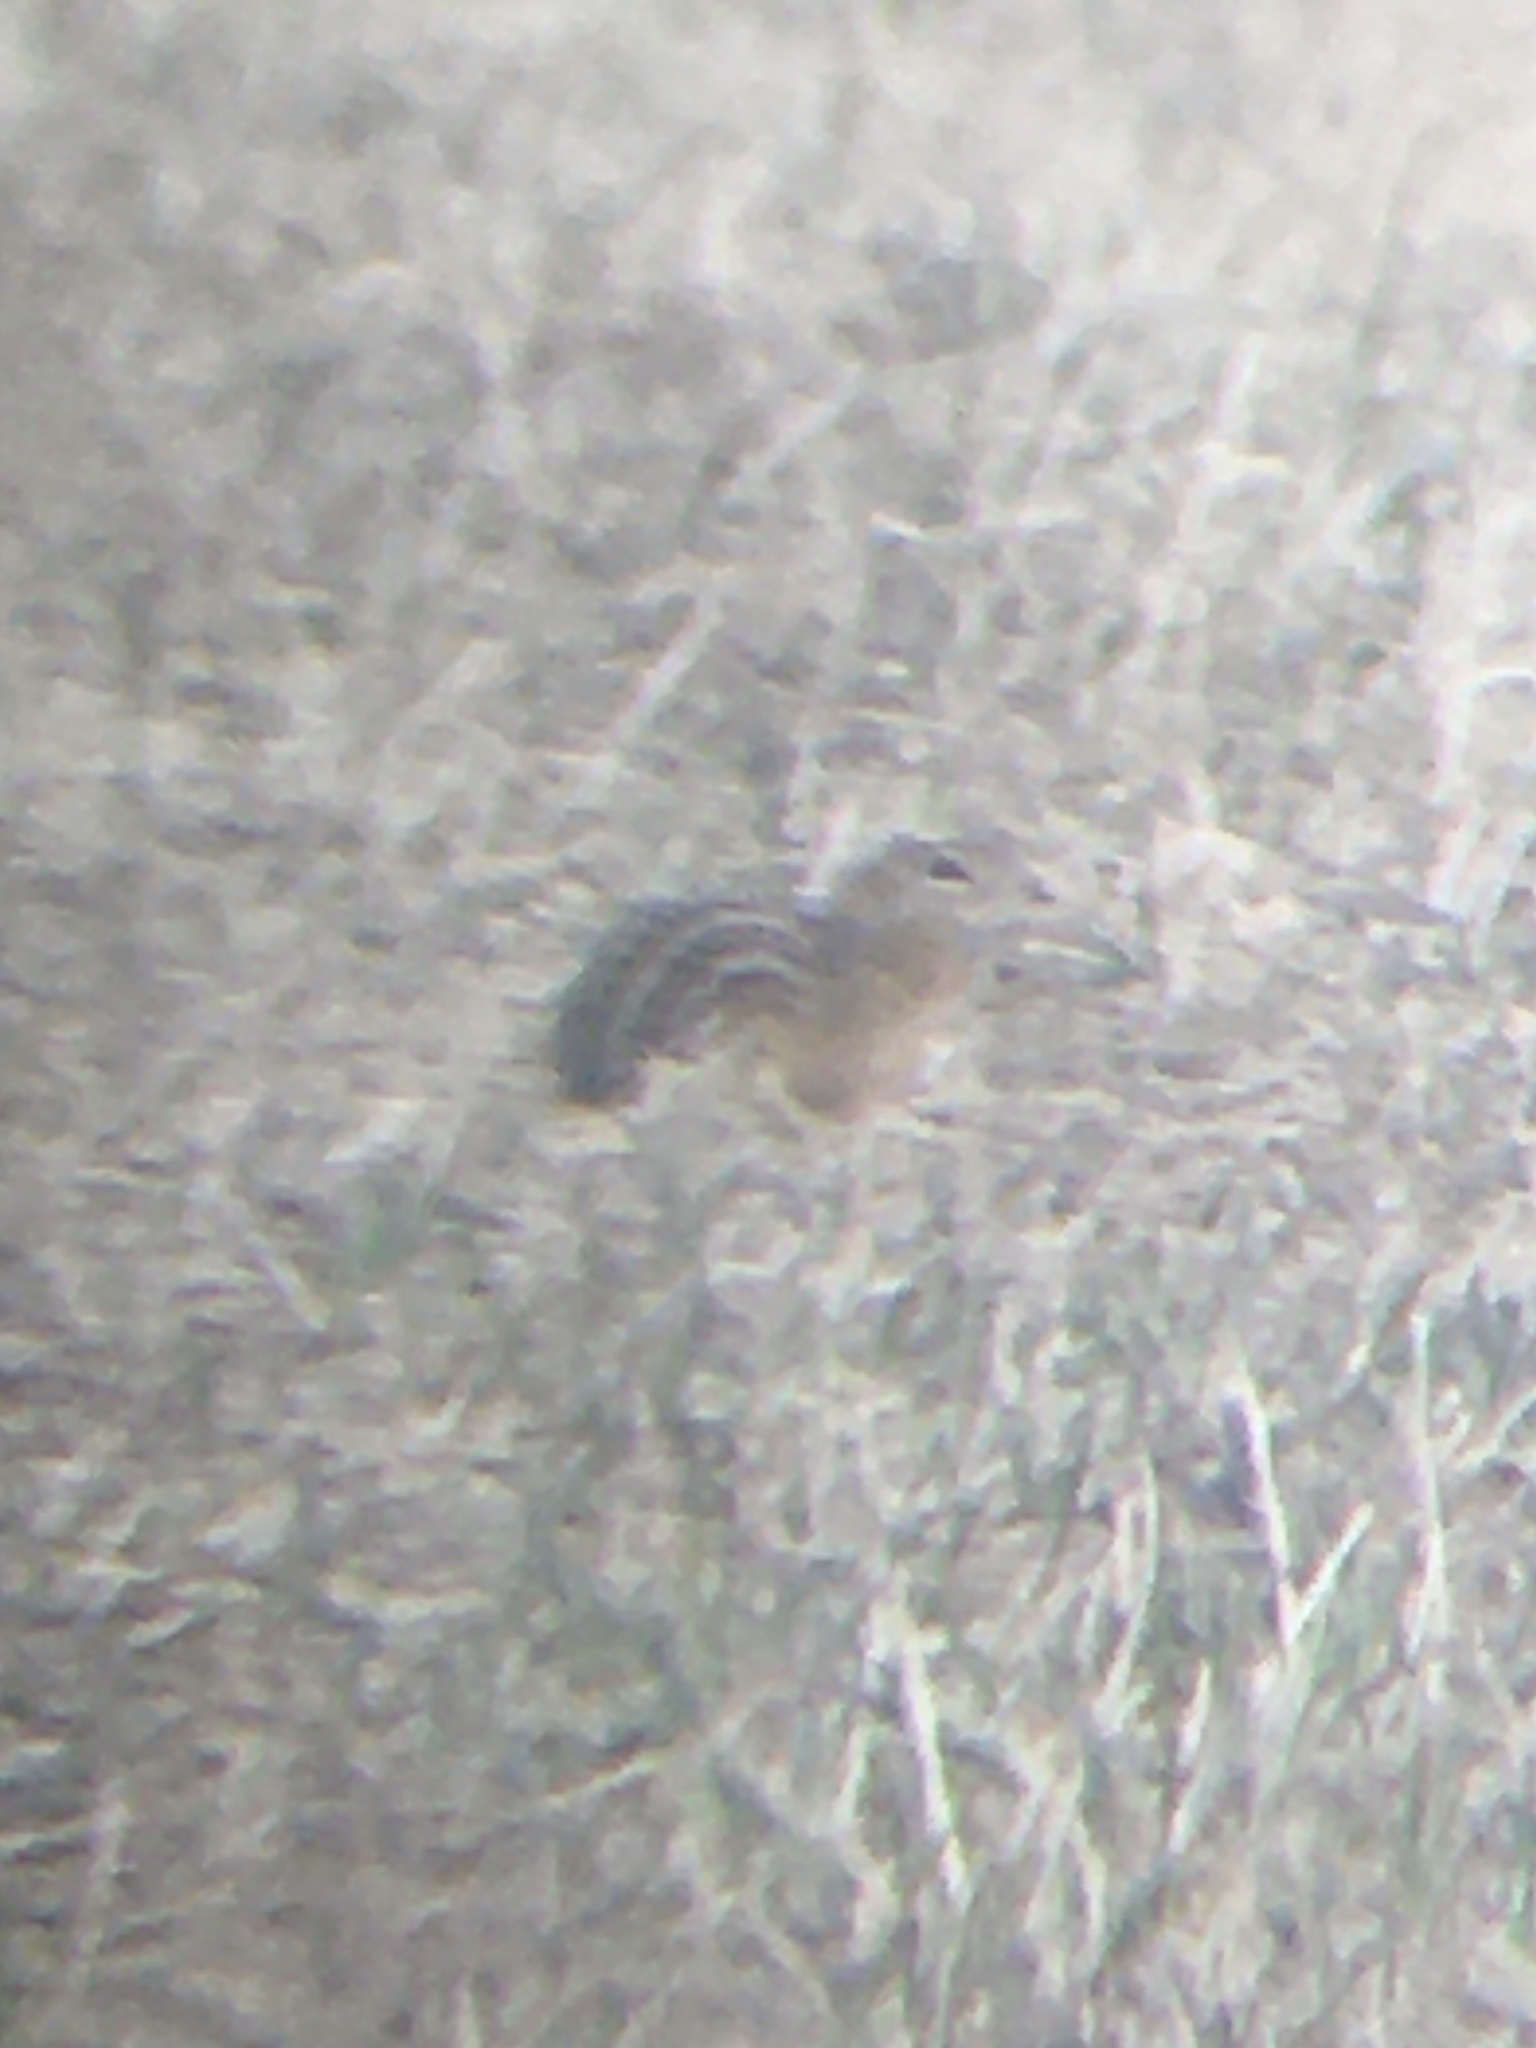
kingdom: Animalia
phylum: Chordata
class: Mammalia
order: Rodentia
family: Sciuridae
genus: Ictidomys
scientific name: Ictidomys tridecemlineatus
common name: Thirteen-lined ground squirrel
